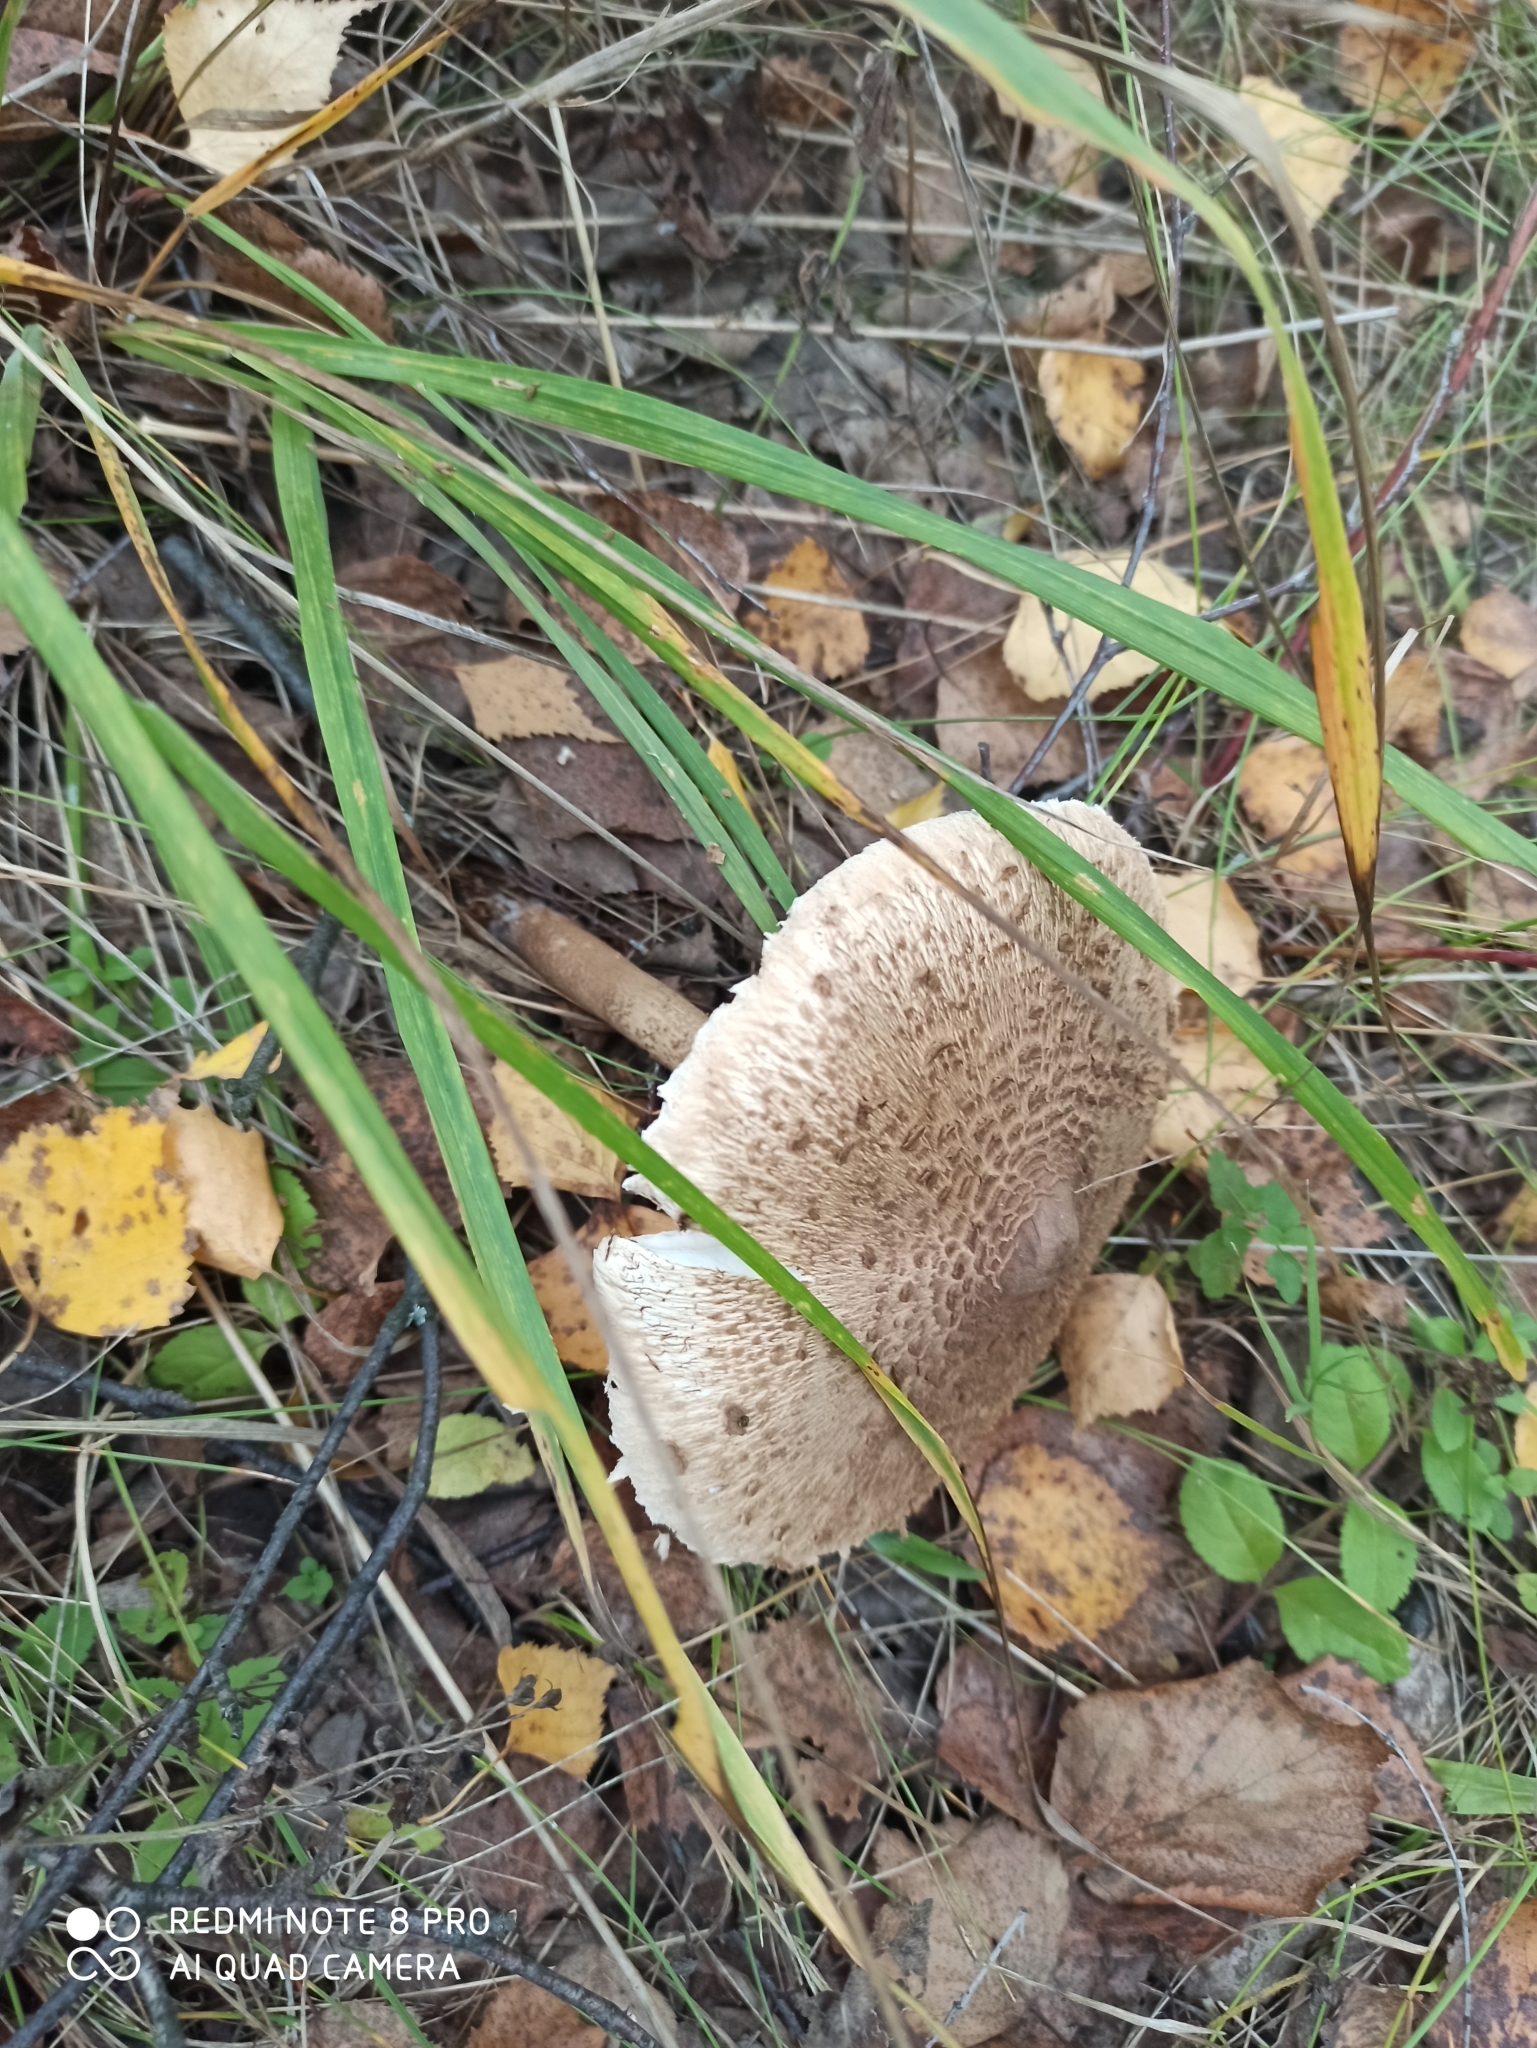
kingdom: Fungi
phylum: Basidiomycota
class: Agaricomycetes
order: Agaricales
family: Agaricaceae
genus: Macrolepiota
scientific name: Macrolepiota procera
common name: Parasol
